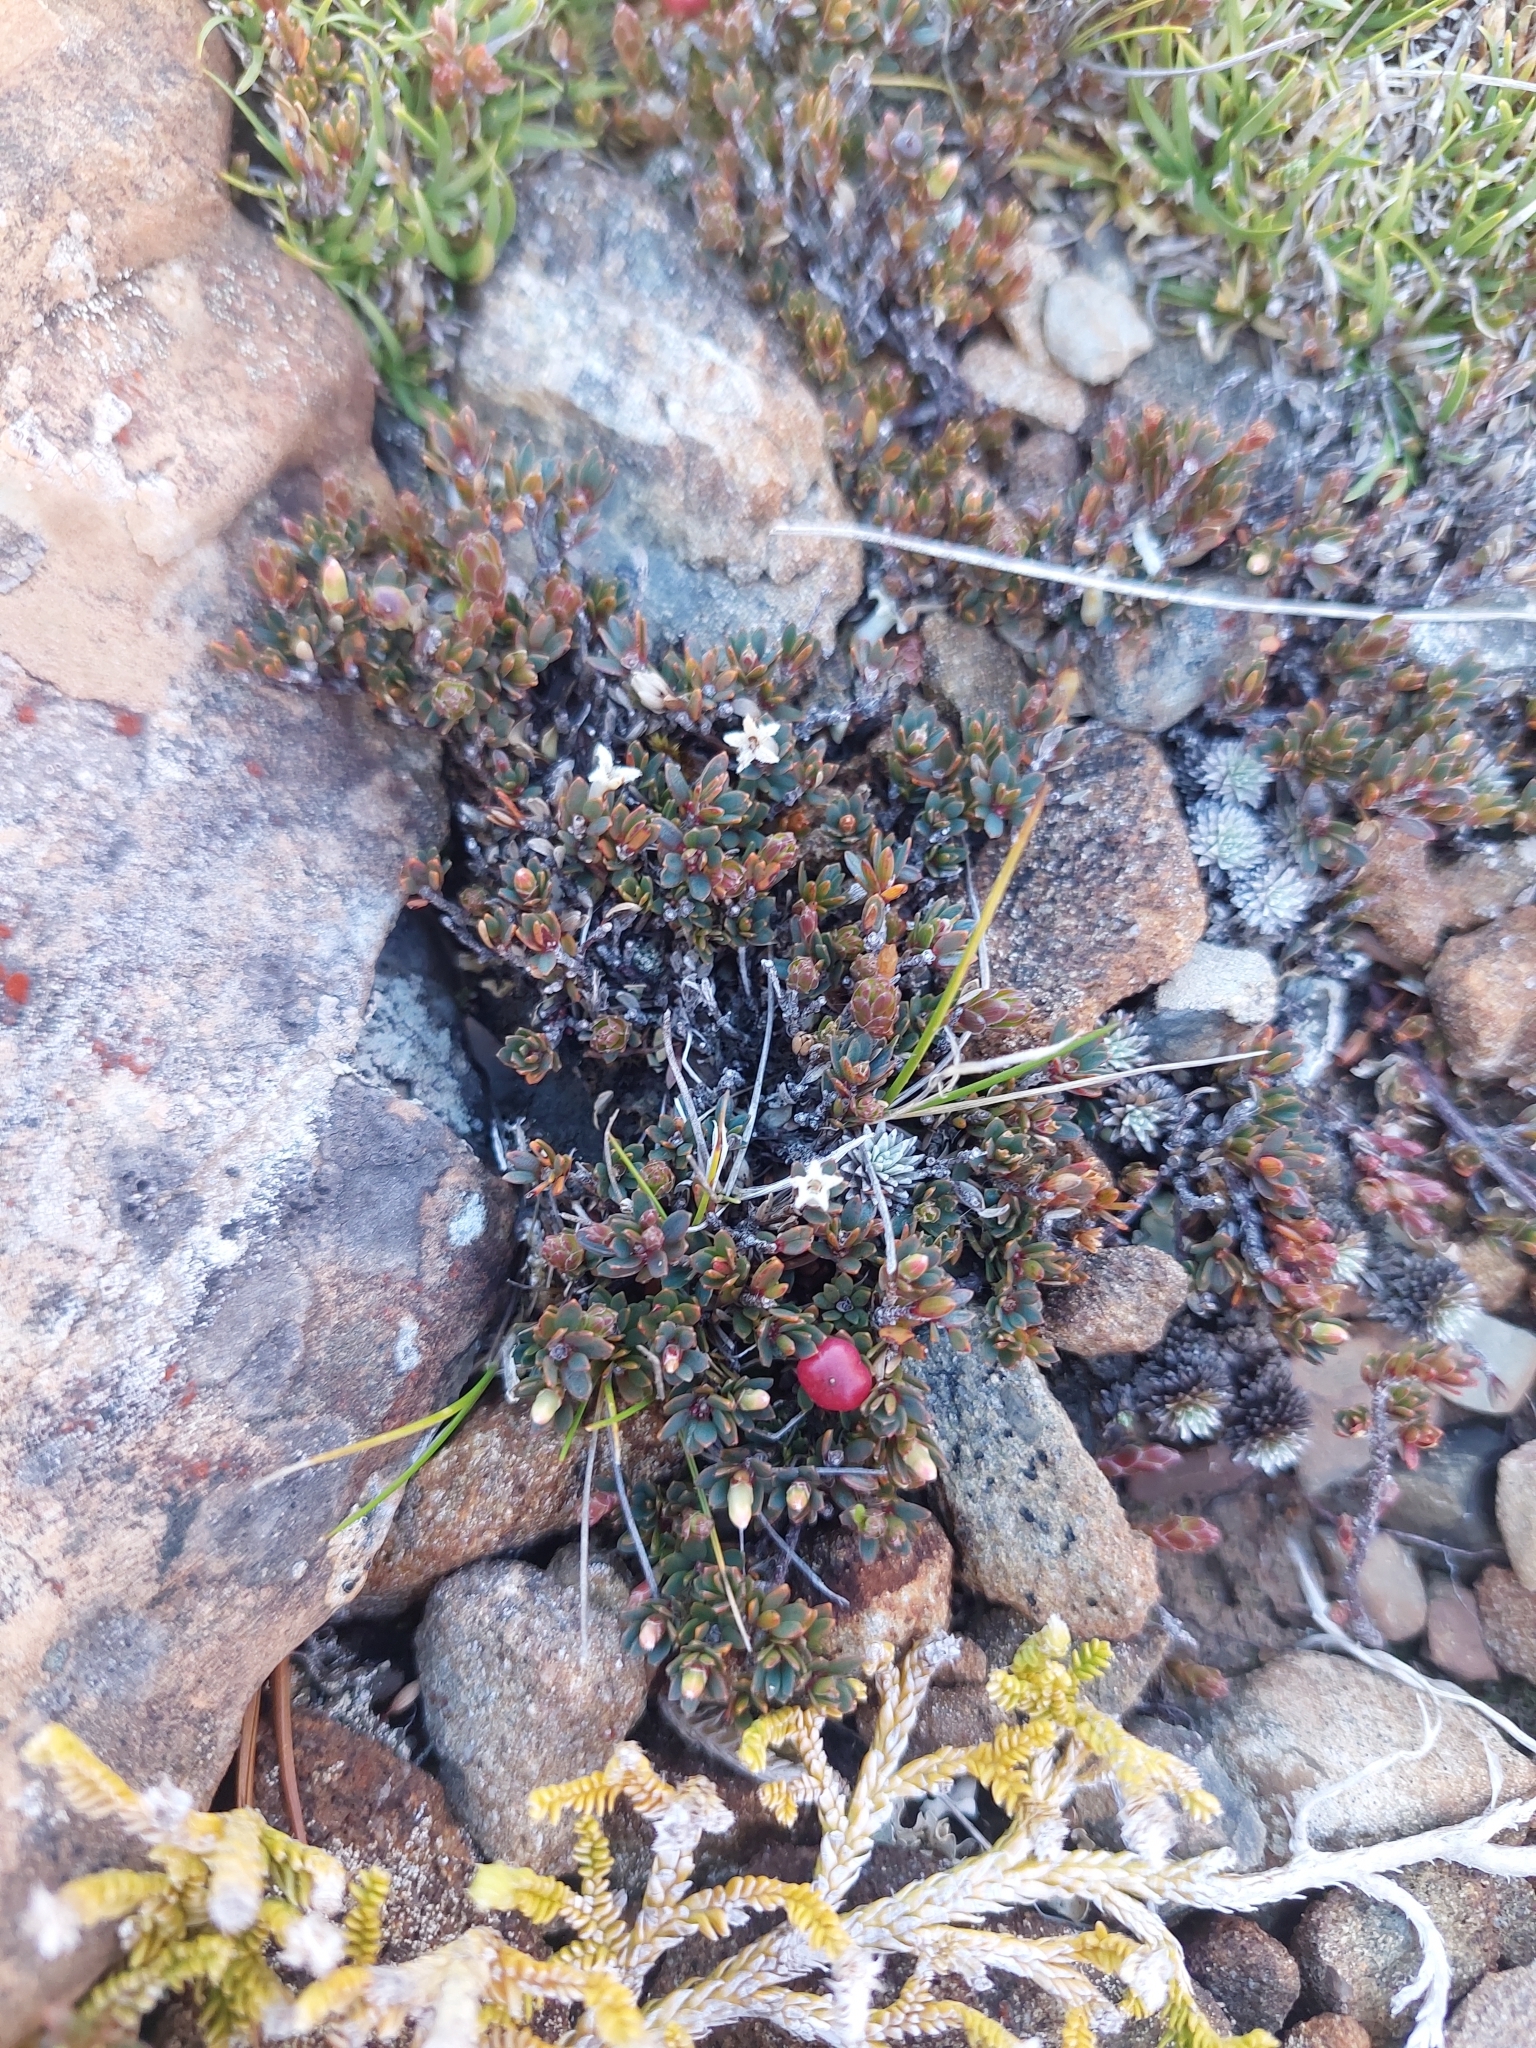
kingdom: Plantae
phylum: Tracheophyta
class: Magnoliopsida
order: Ericales
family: Ericaceae
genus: Pentachondra
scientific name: Pentachondra pumila
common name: Carpet-heath
